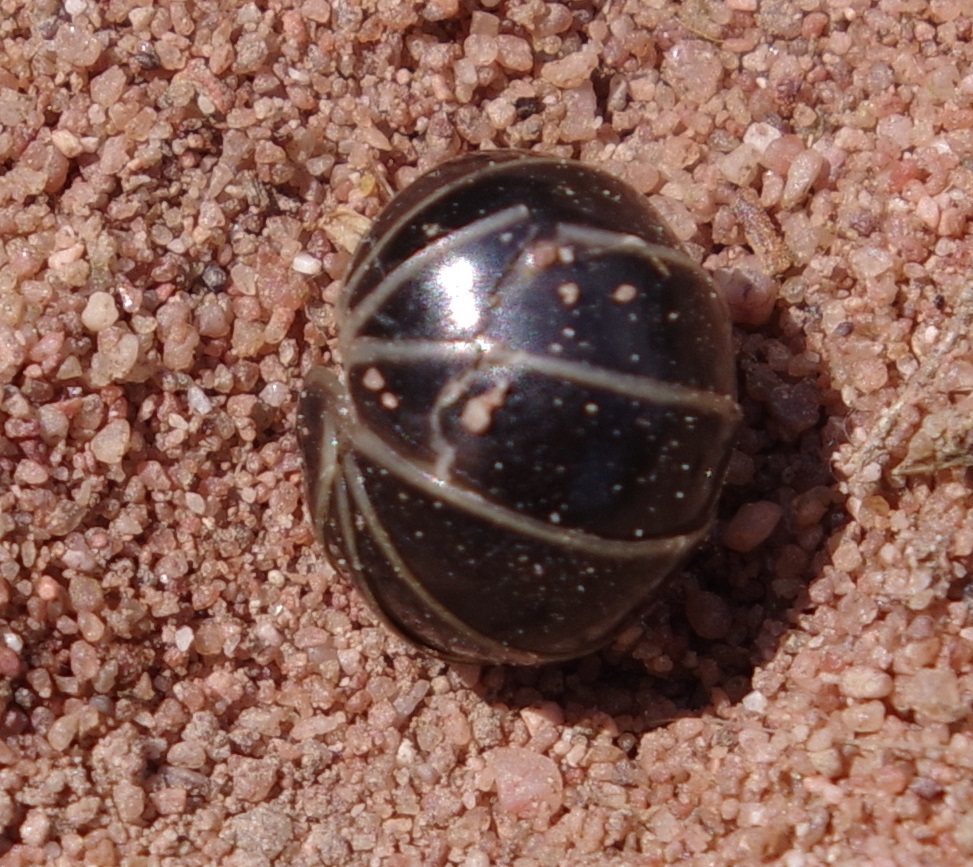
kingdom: Animalia
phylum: Arthropoda
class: Diplopoda
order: Glomerida
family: Glomeridae
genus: Glomeris
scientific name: Glomeris marginata
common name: Bordered pill millipede
